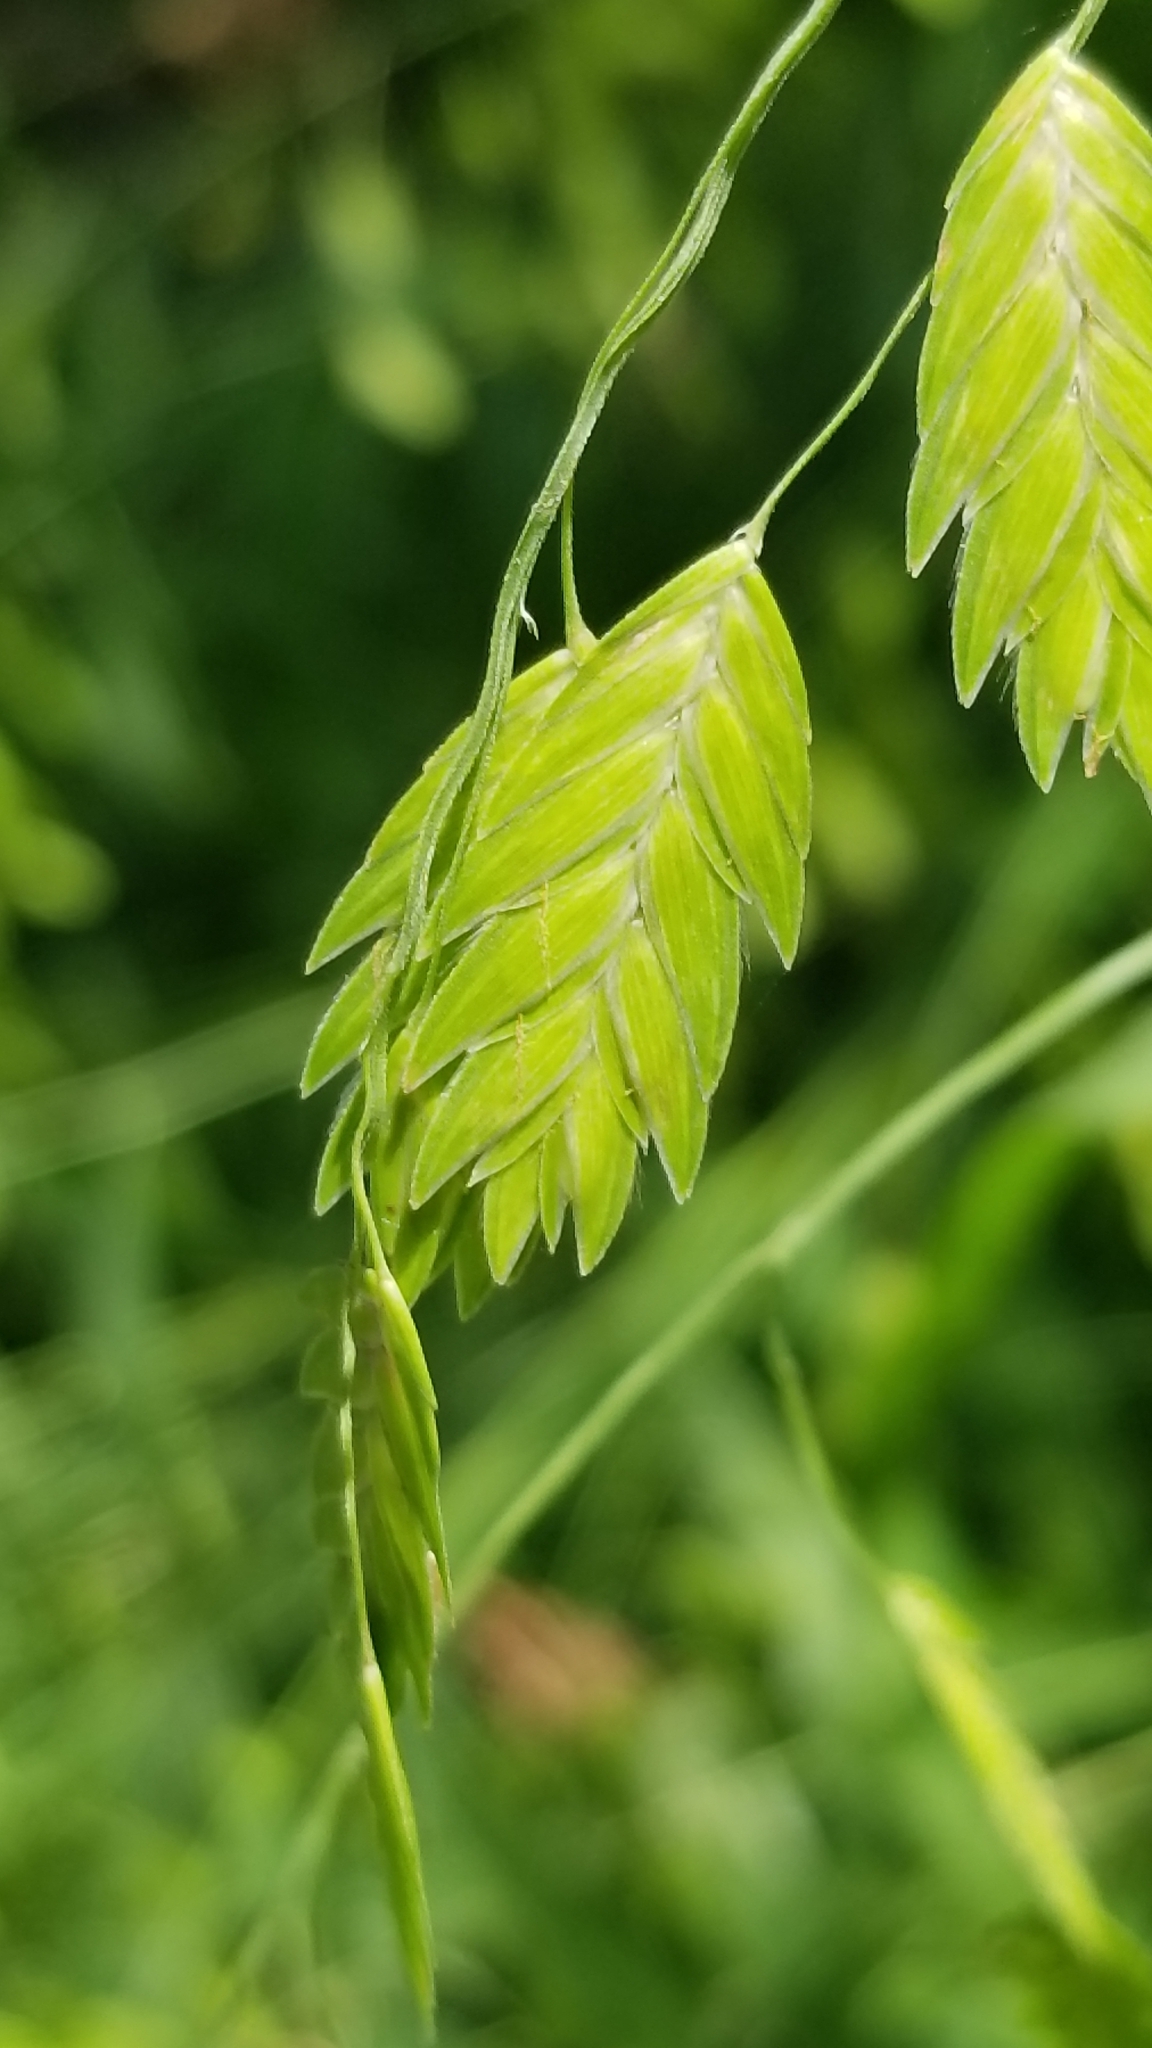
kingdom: Plantae
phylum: Tracheophyta
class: Liliopsida
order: Poales
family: Poaceae
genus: Chasmanthium
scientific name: Chasmanthium latifolium
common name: Broad-leaved chasmanthium
